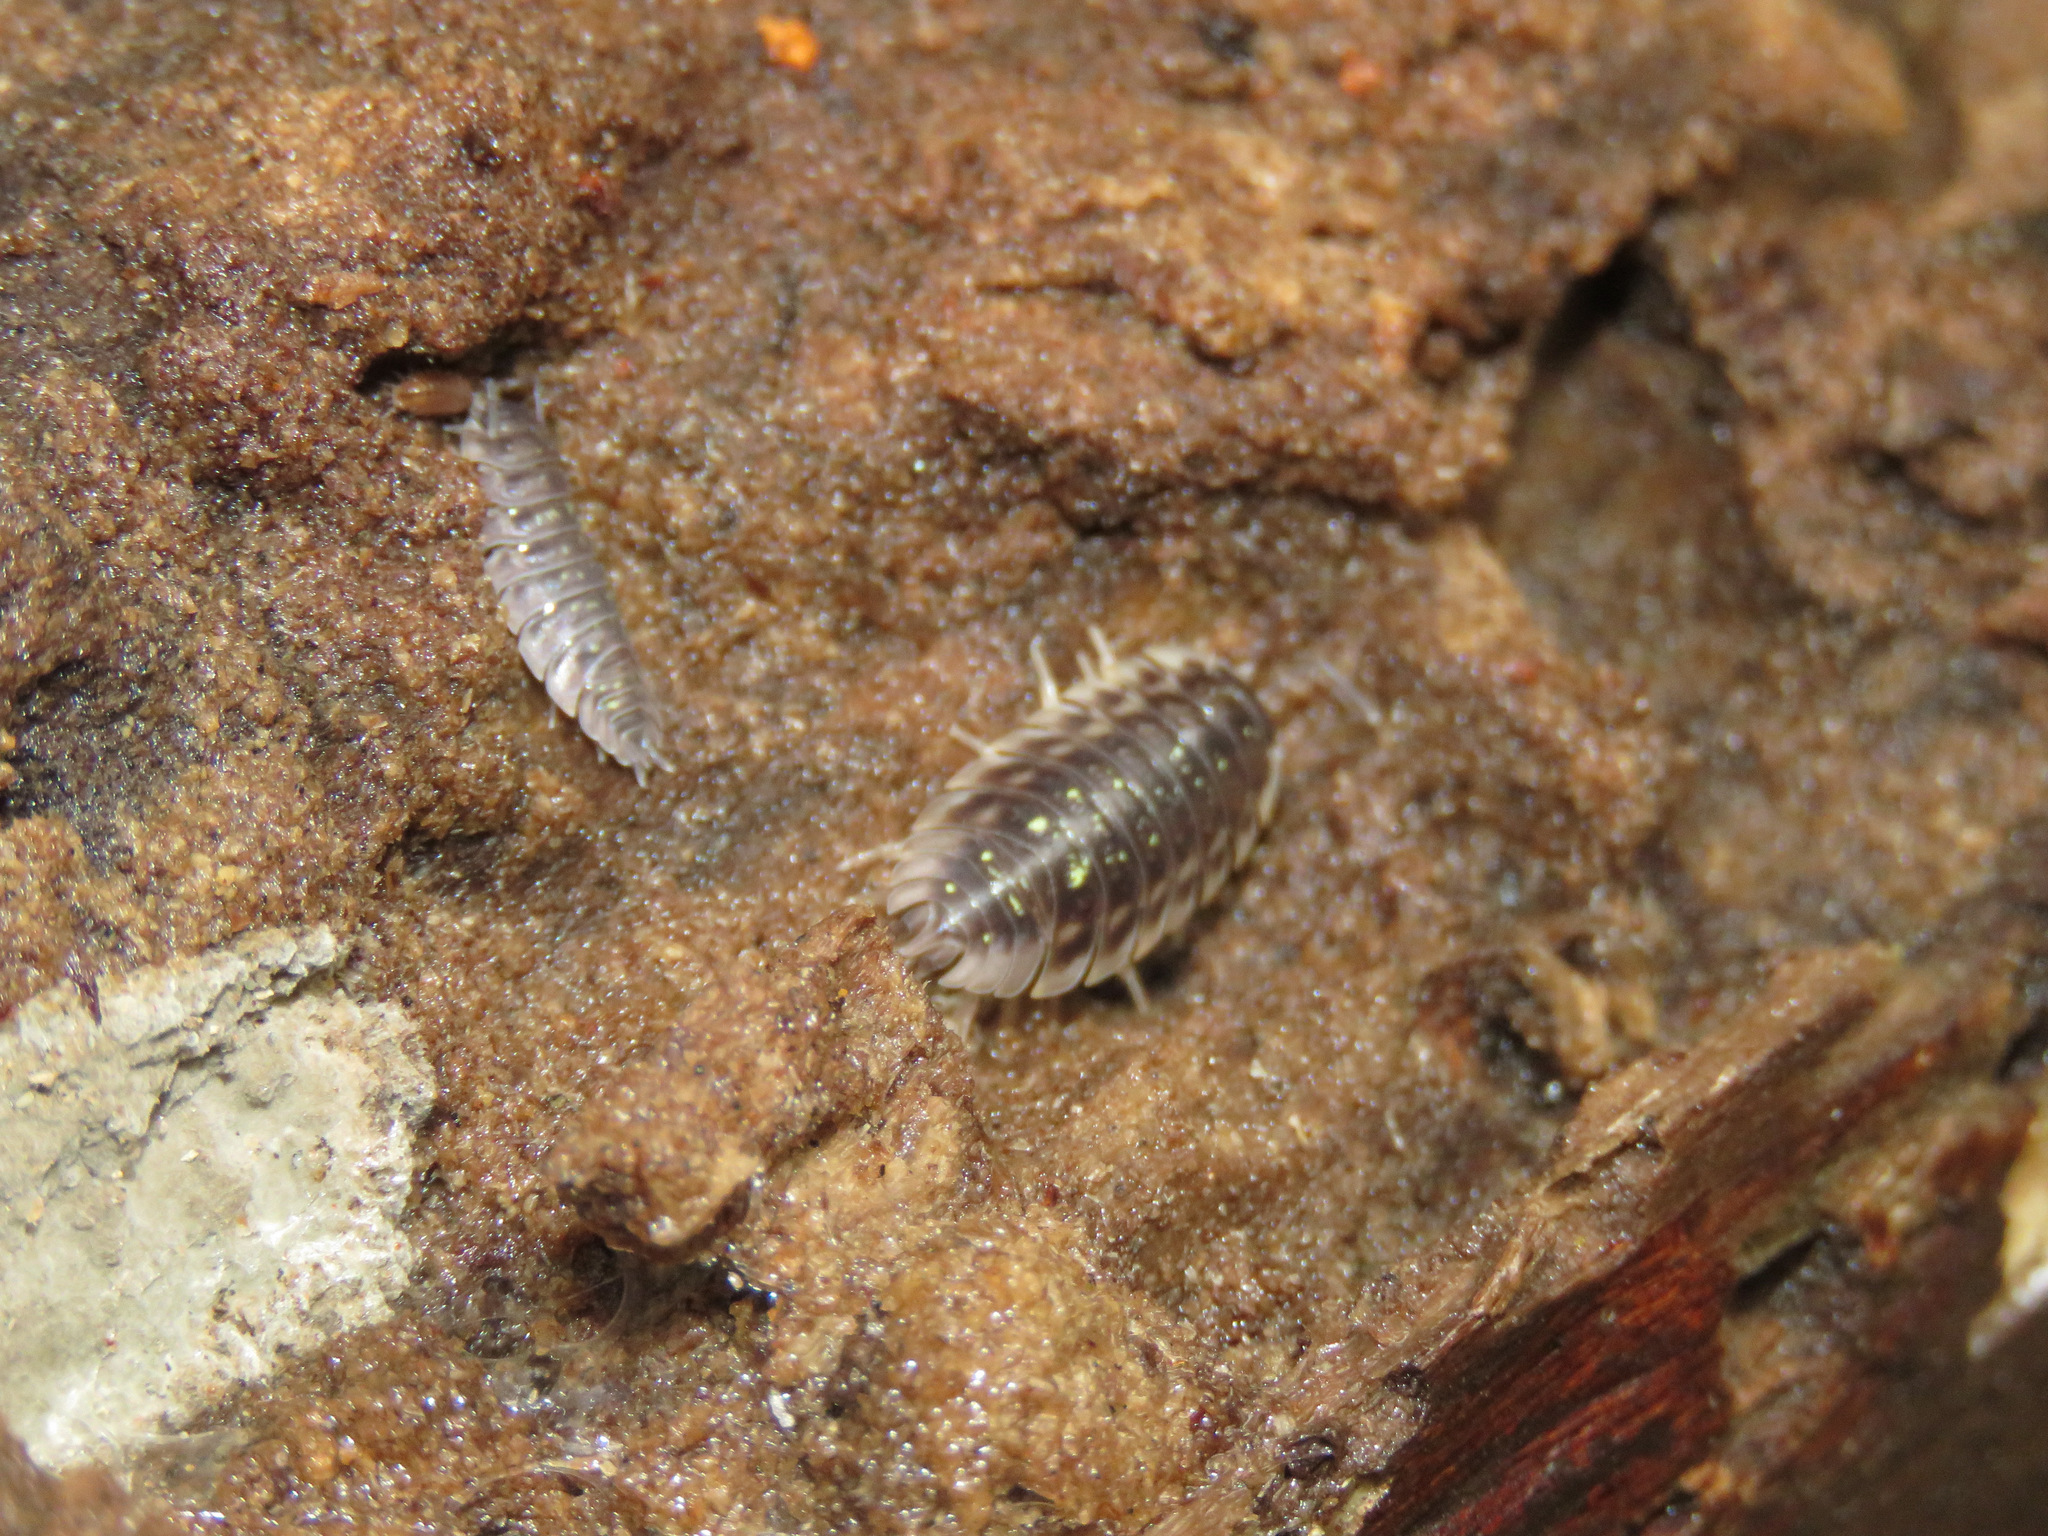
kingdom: Animalia
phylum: Arthropoda
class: Malacostraca
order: Isopoda
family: Oniscidae
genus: Oniscus
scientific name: Oniscus asellus
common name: Common shiny woodlouse
